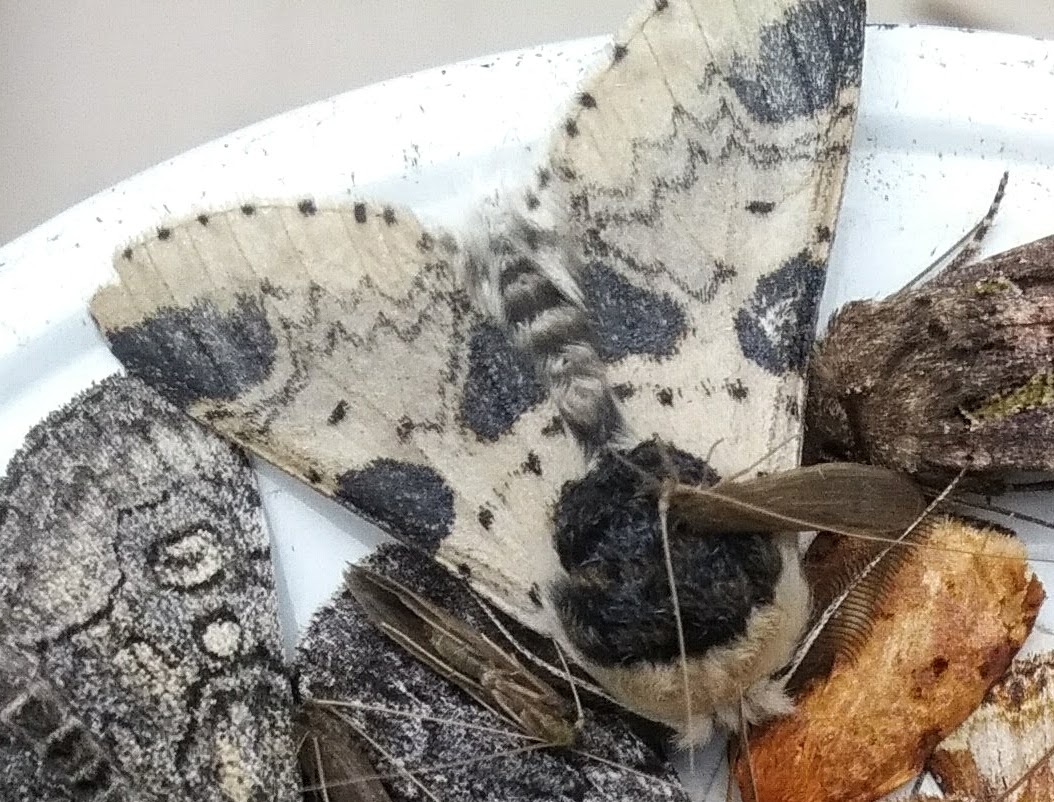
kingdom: Animalia
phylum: Arthropoda
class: Insecta
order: Lepidoptera
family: Notodontidae
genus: Furcula
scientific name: Furcula modesta
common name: Modest furcula moth
